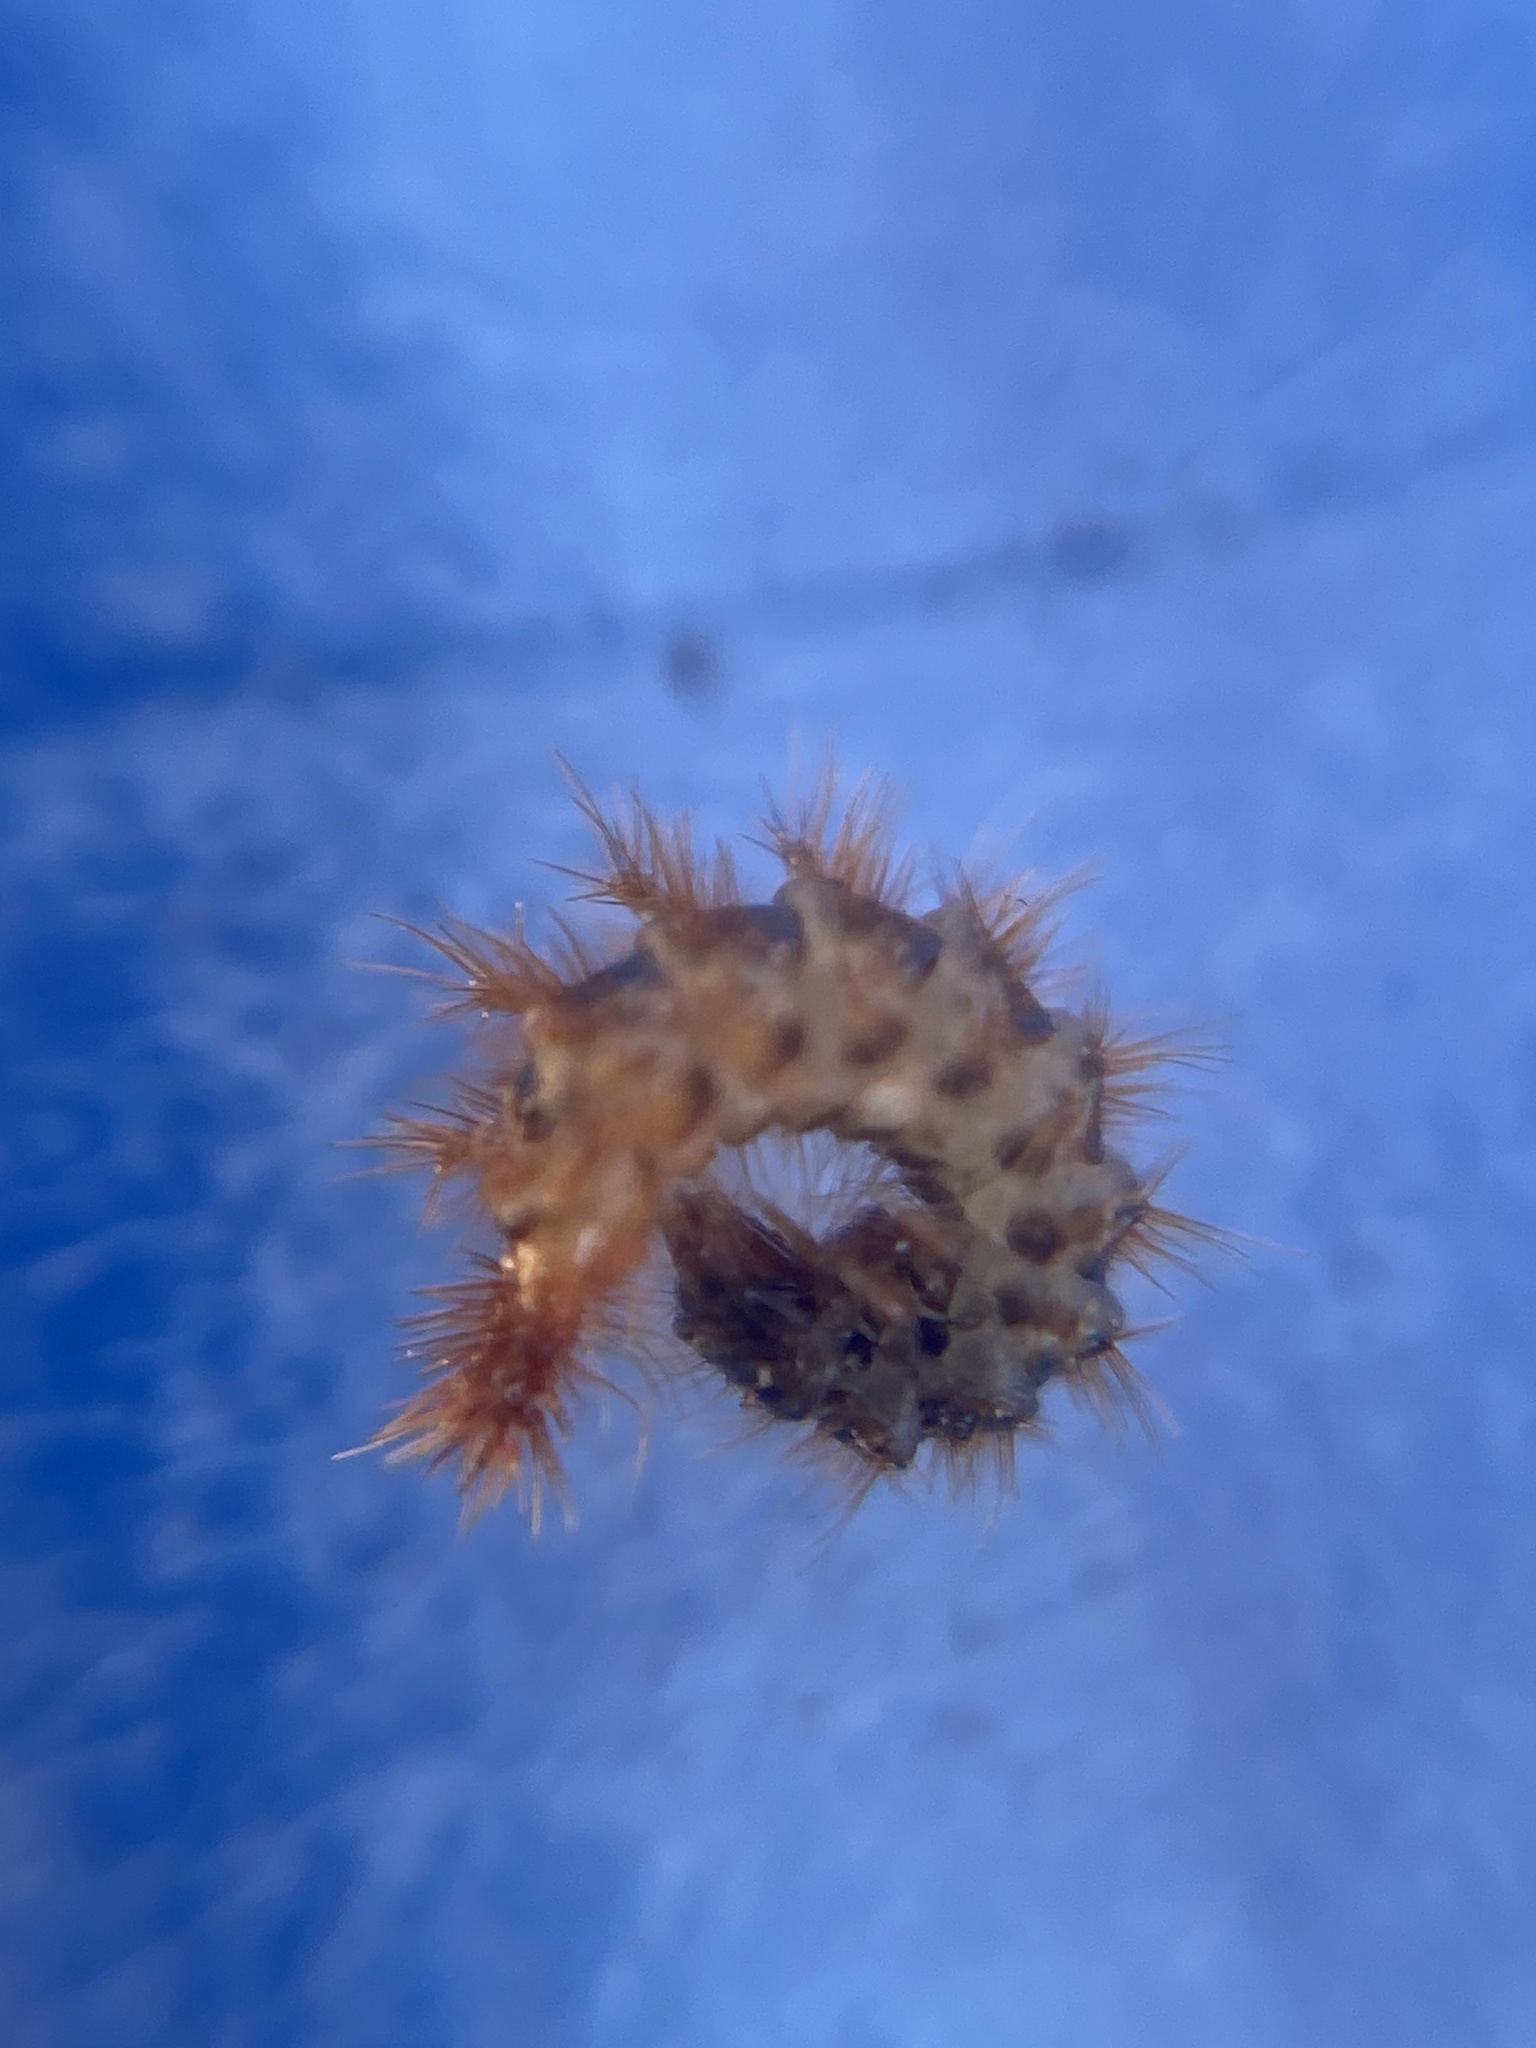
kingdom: Animalia
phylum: Arthropoda
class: Insecta
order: Coleoptera
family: Drilidae
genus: Drilus
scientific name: Drilus concolor
